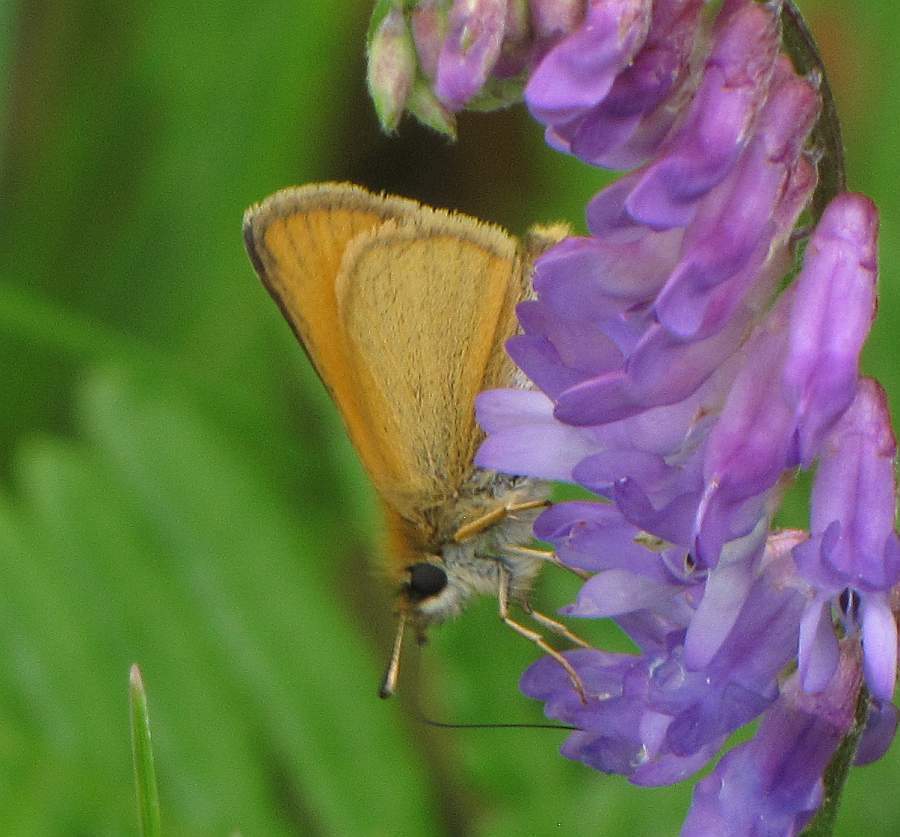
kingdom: Animalia
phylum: Arthropoda
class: Insecta
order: Lepidoptera
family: Hesperiidae
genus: Thymelicus
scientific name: Thymelicus lineola
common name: Essex skipper
